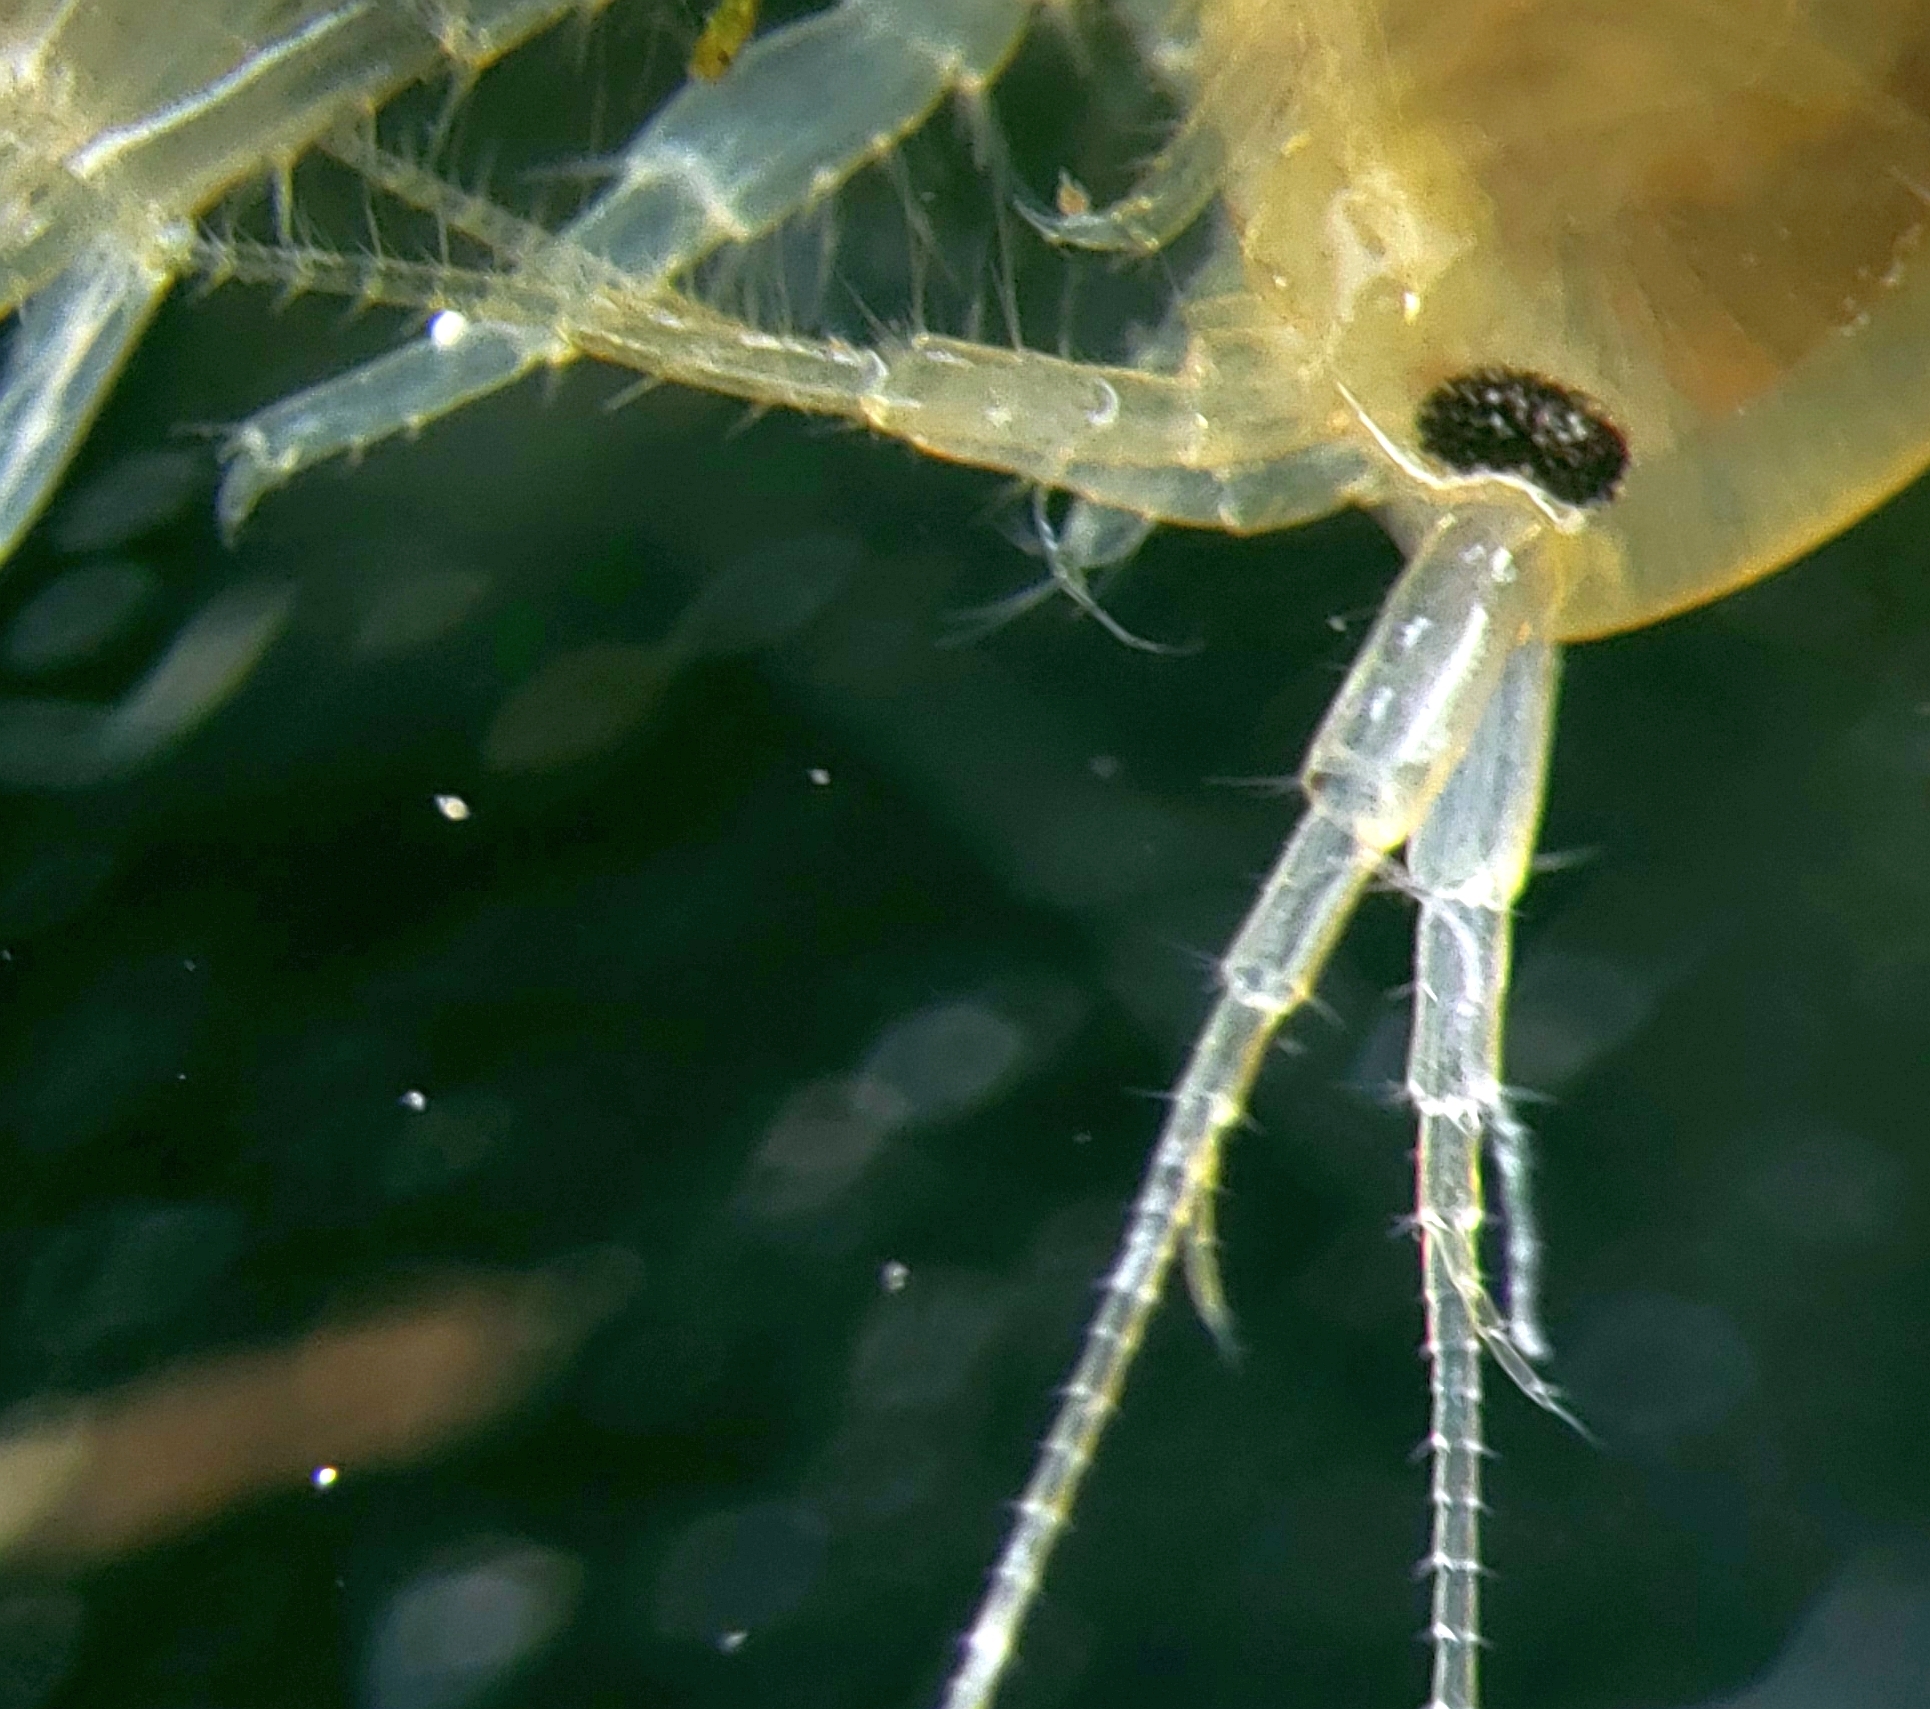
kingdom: Animalia
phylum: Arthropoda
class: Malacostraca
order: Amphipoda
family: Gammaridae
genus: Gammarus
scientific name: Gammarus pseudolimnaeus
